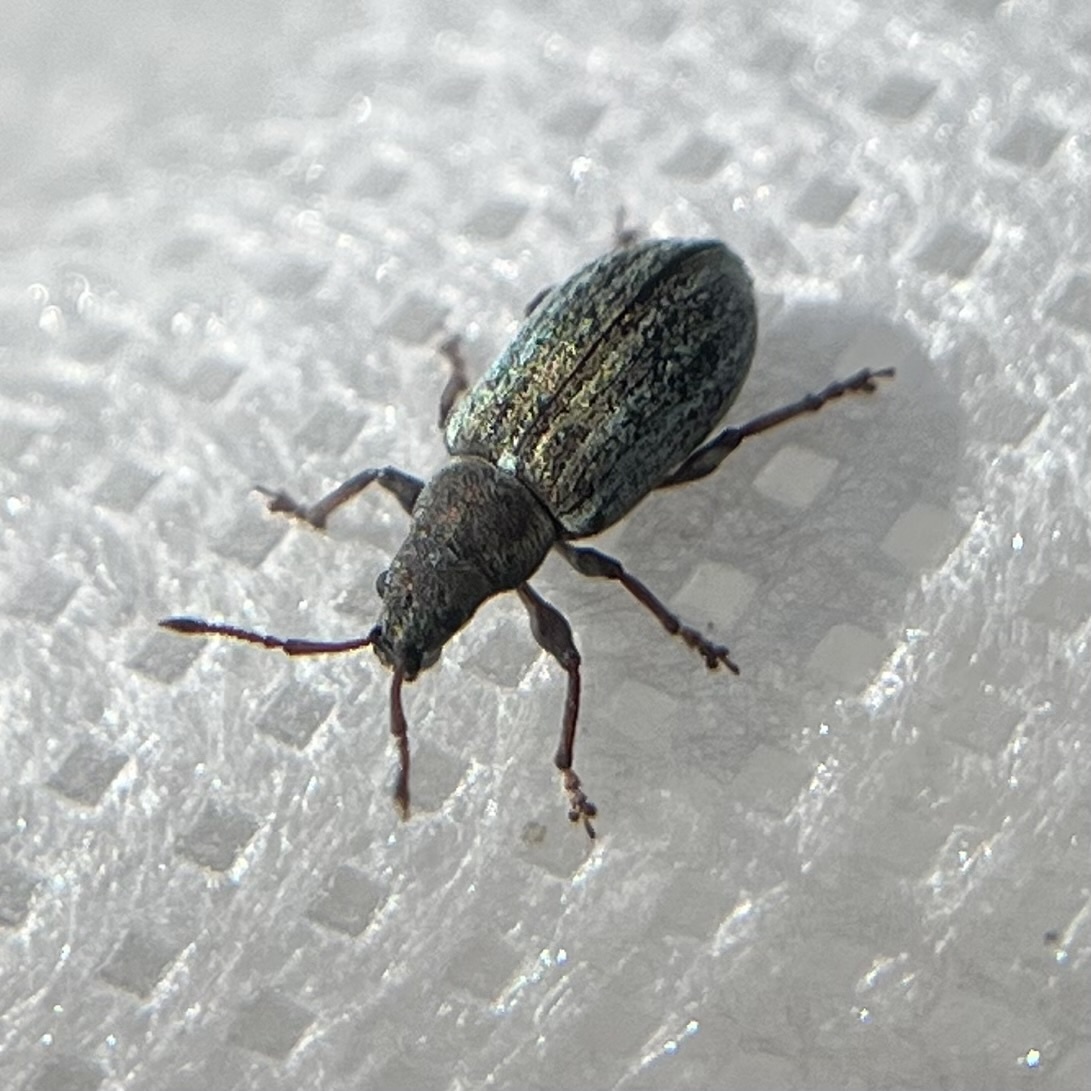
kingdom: Animalia
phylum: Arthropoda
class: Insecta
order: Coleoptera
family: Curculionidae
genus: Phyllobius
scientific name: Phyllobius pyri
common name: Common leaf weevil
